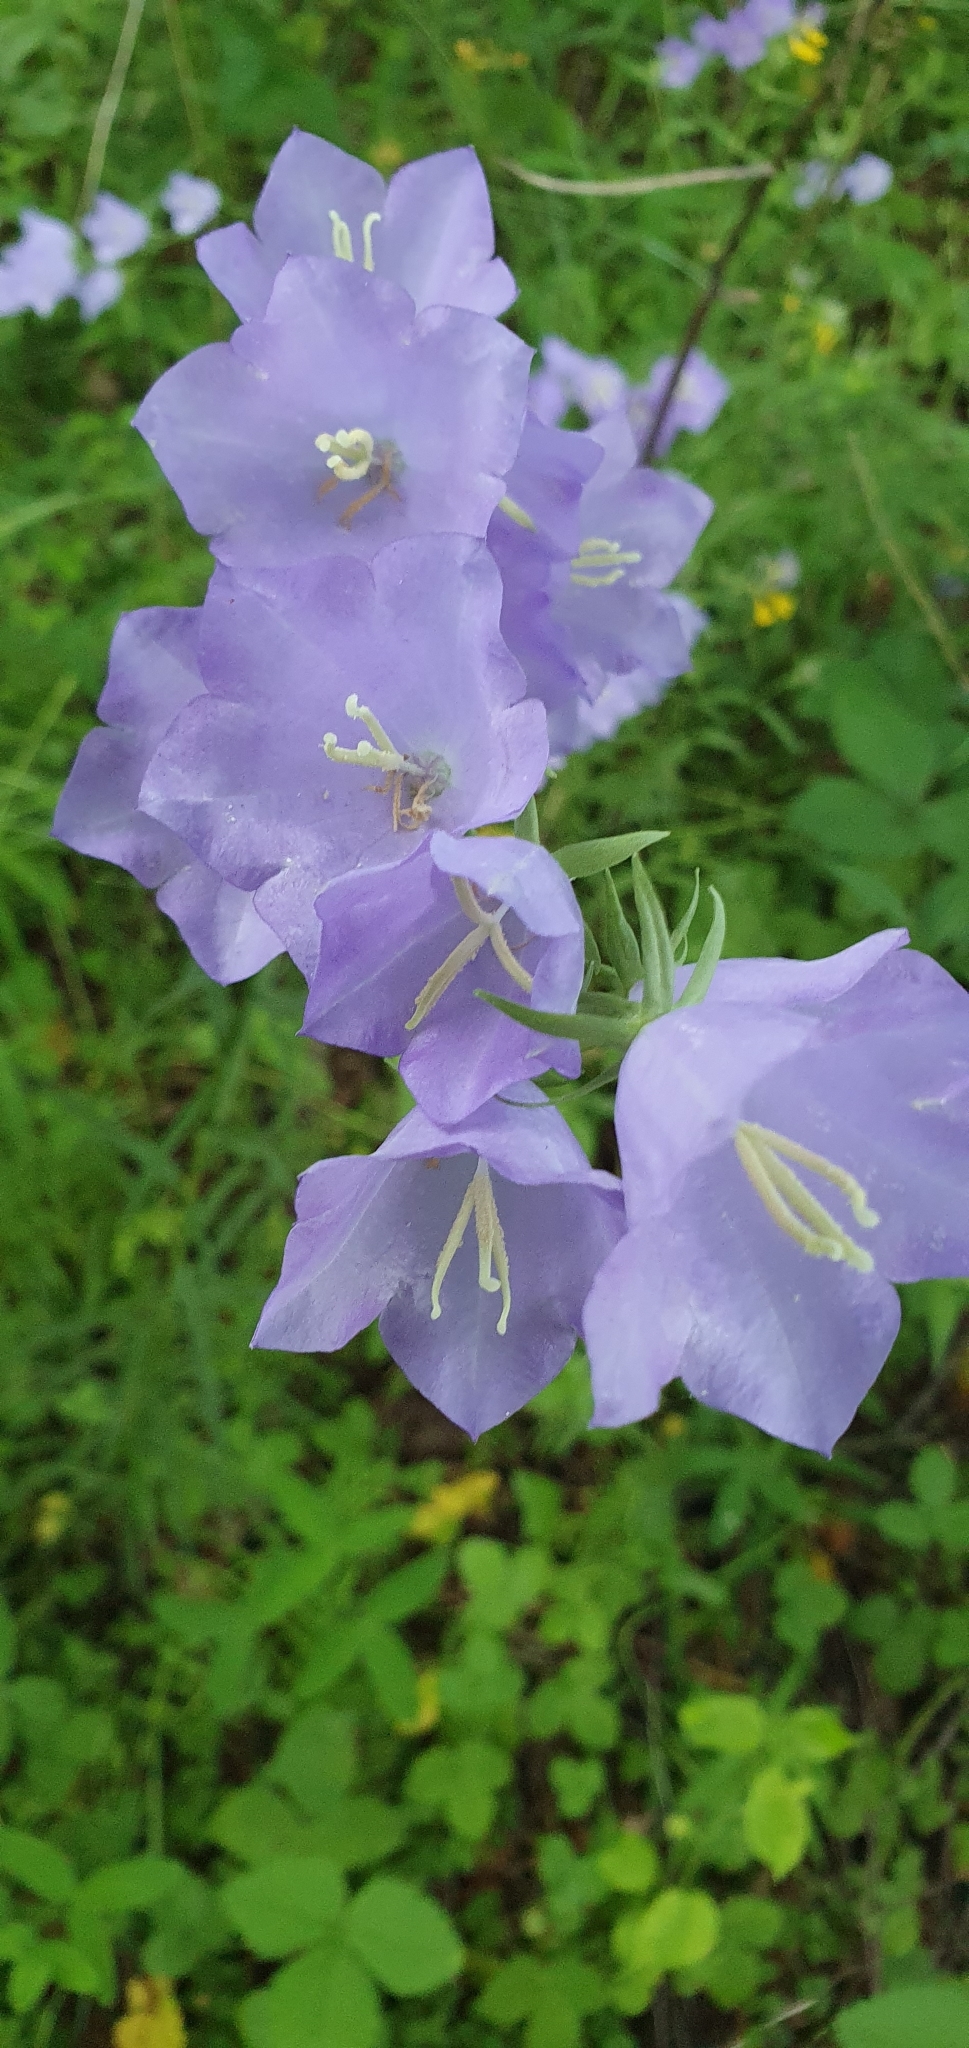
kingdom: Plantae
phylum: Tracheophyta
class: Magnoliopsida
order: Asterales
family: Campanulaceae
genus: Campanula
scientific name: Campanula persicifolia
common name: Peach-leaved bellflower
